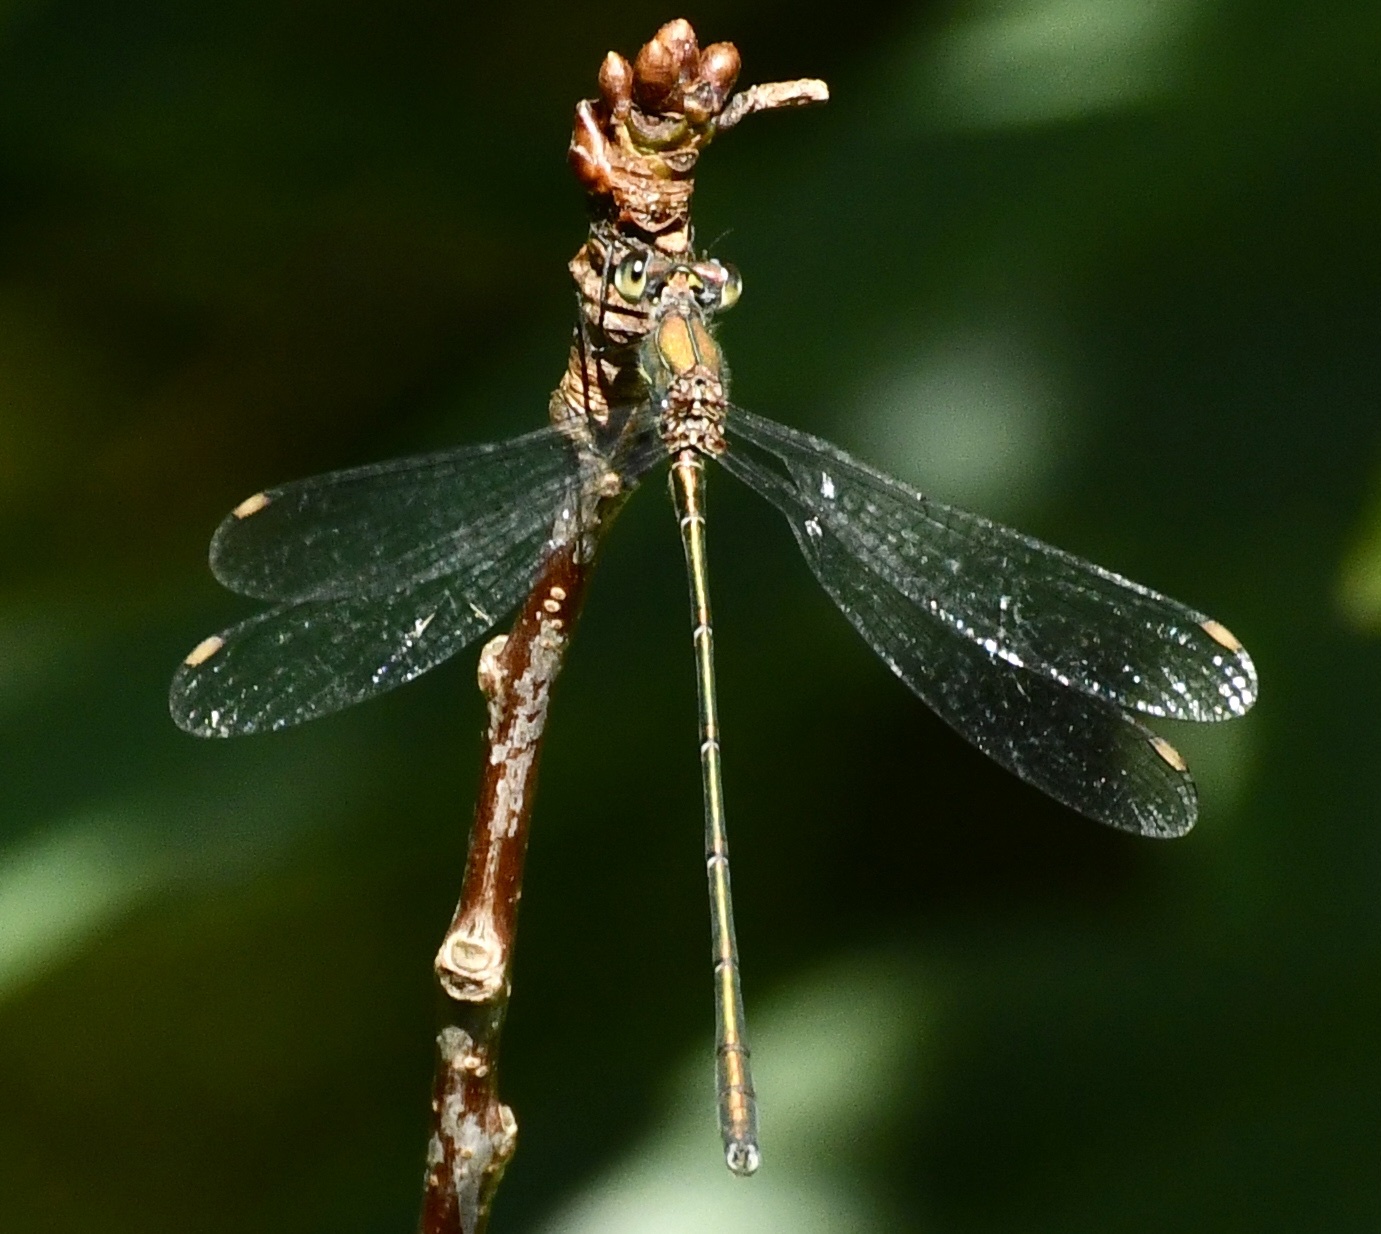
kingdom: Animalia
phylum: Arthropoda
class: Insecta
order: Odonata
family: Lestidae
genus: Chalcolestes
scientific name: Chalcolestes viridis
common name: Green emerald damselfly
